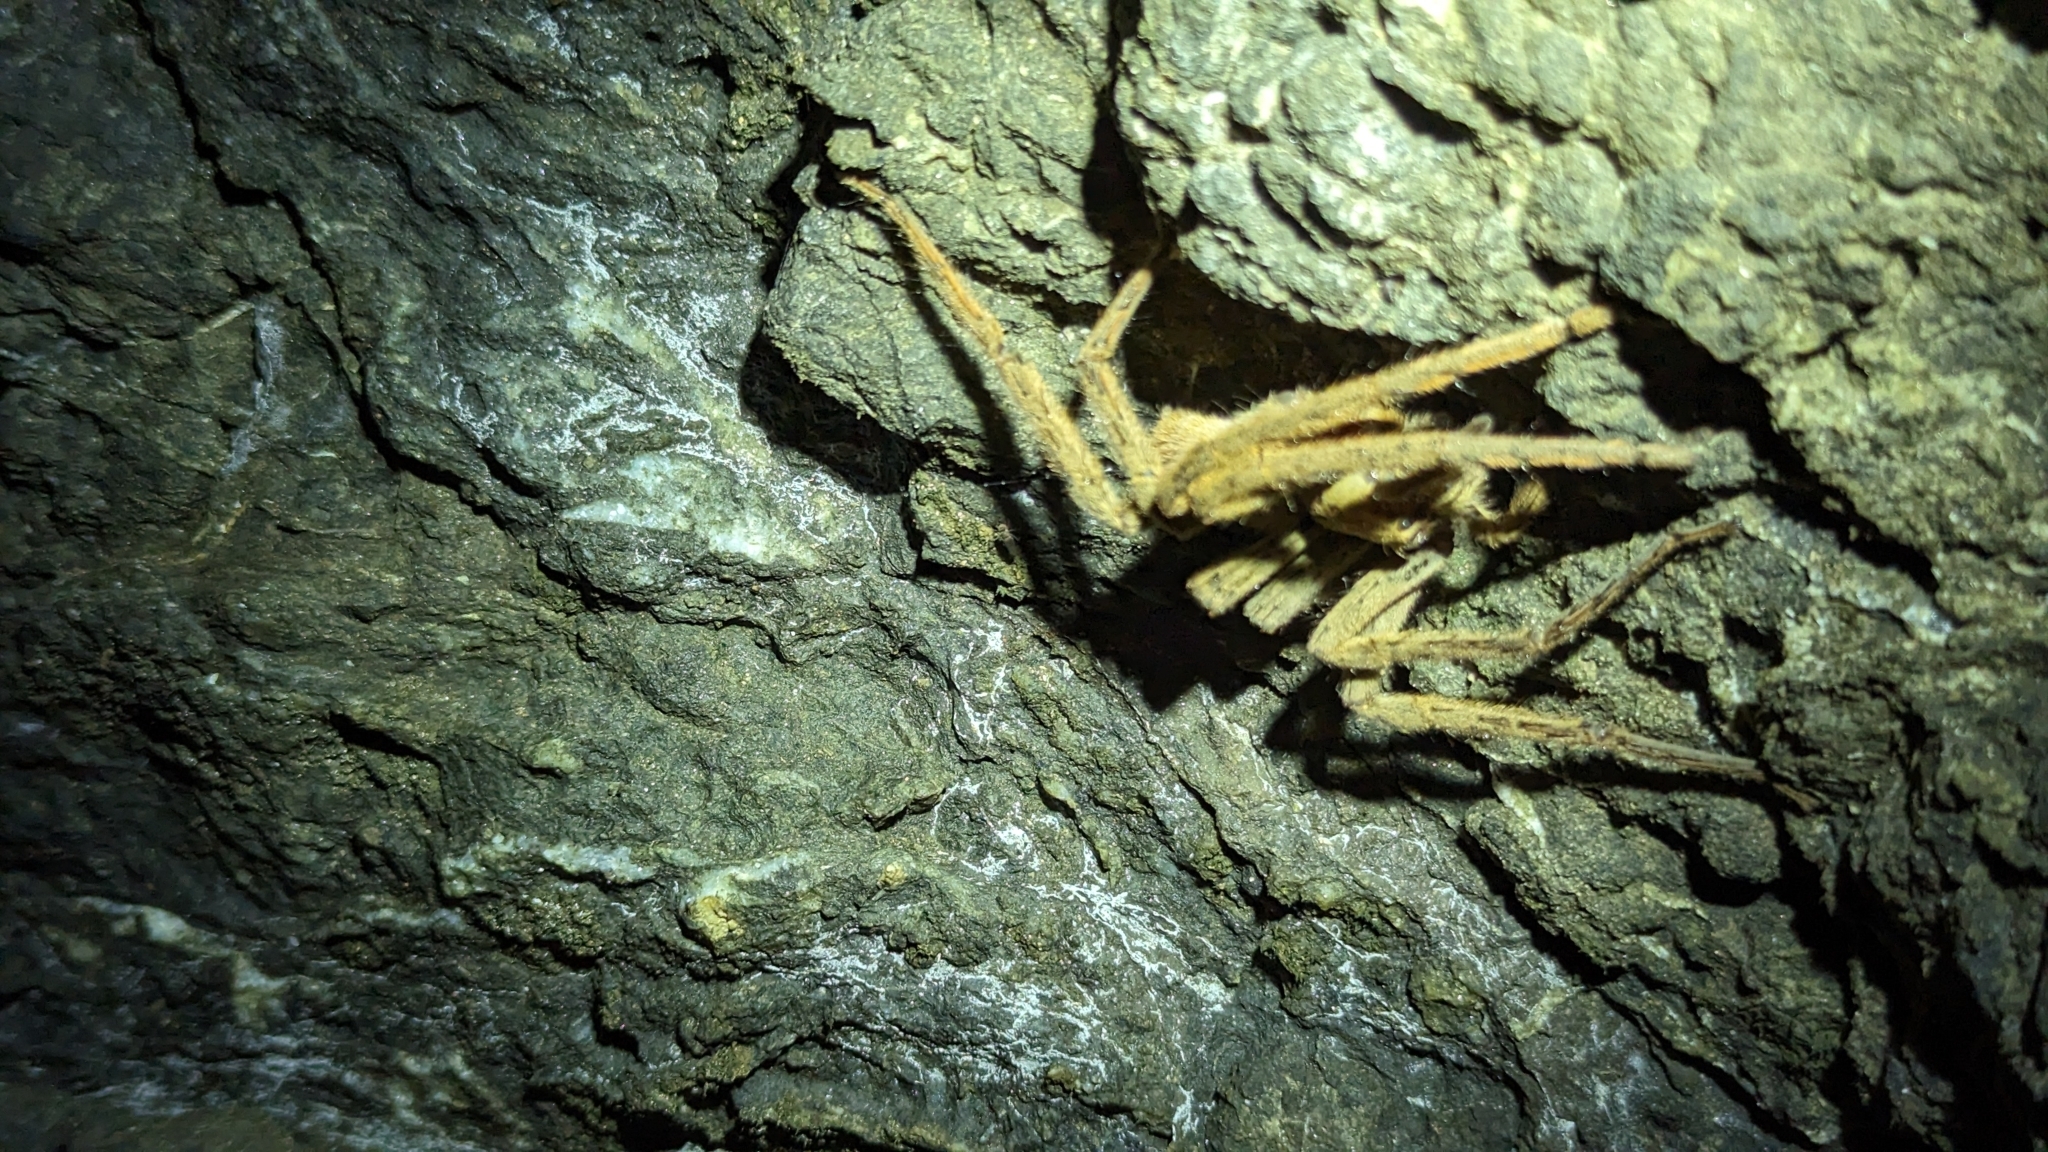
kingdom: Animalia
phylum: Arthropoda
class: Arachnida
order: Araneae
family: Trechaleidae
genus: Cupiennius
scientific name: Cupiennius coccineus
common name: Wandering spiders
